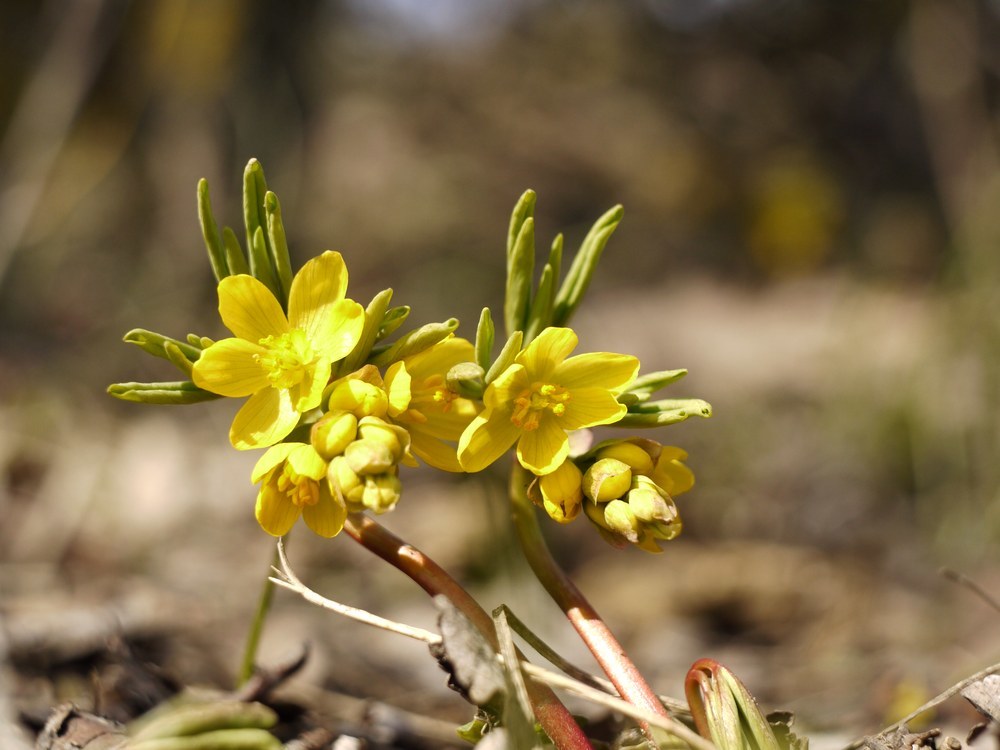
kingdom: Plantae
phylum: Tracheophyta
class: Magnoliopsida
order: Ranunculales
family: Berberidaceae
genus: Gymnospermium
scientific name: Gymnospermium odessanum
